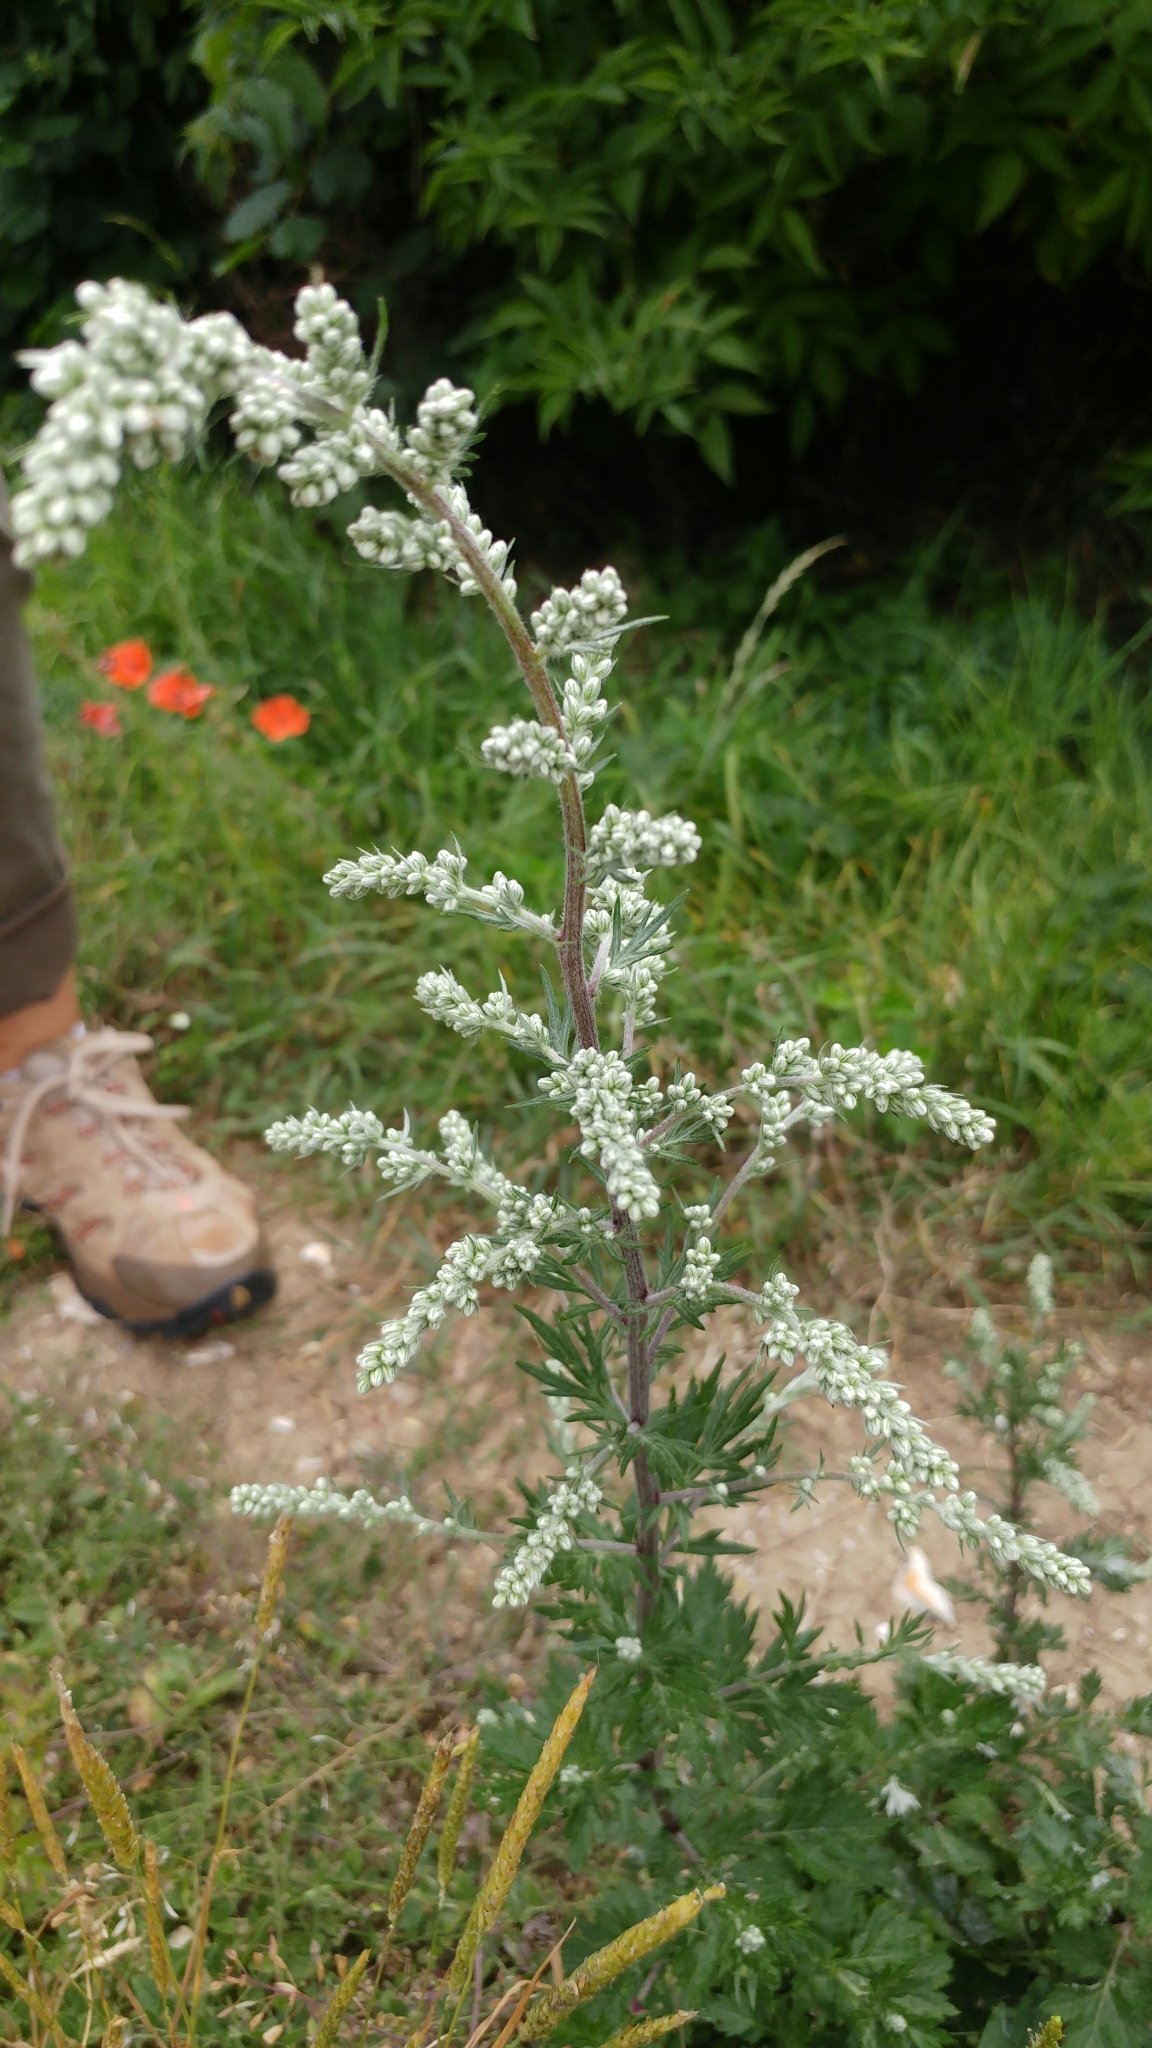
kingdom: Plantae
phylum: Tracheophyta
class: Magnoliopsida
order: Asterales
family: Asteraceae
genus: Artemisia
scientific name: Artemisia vulgaris
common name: Mugwort
